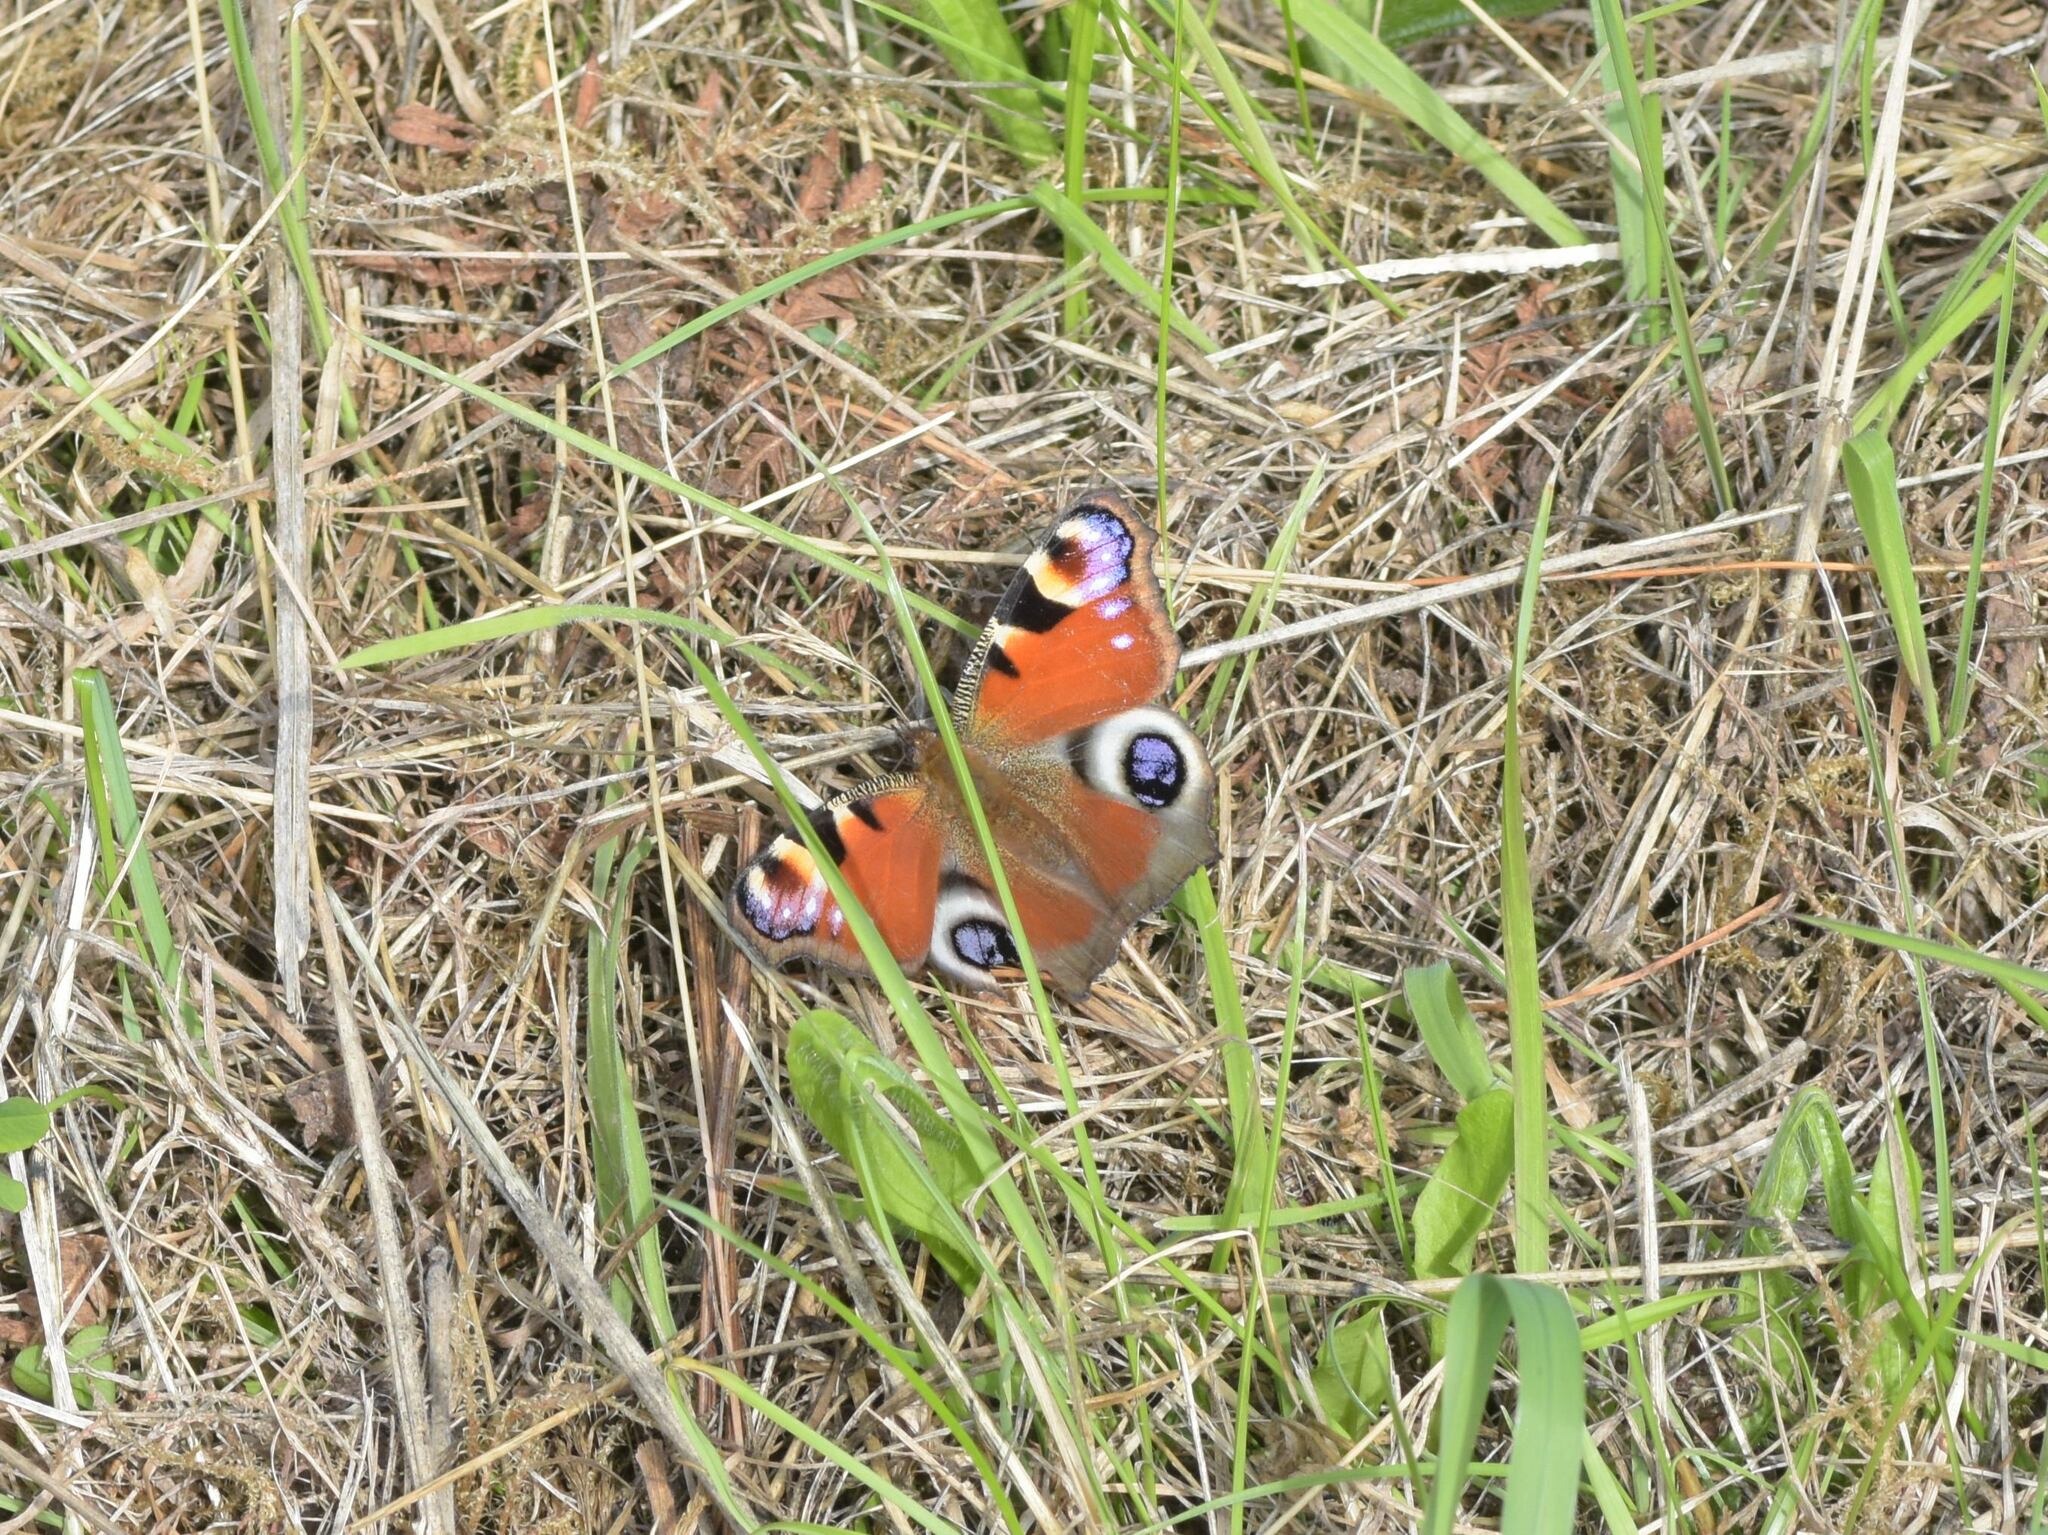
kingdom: Animalia
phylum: Arthropoda
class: Insecta
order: Lepidoptera
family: Nymphalidae
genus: Aglais
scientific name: Aglais io
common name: Peacock
